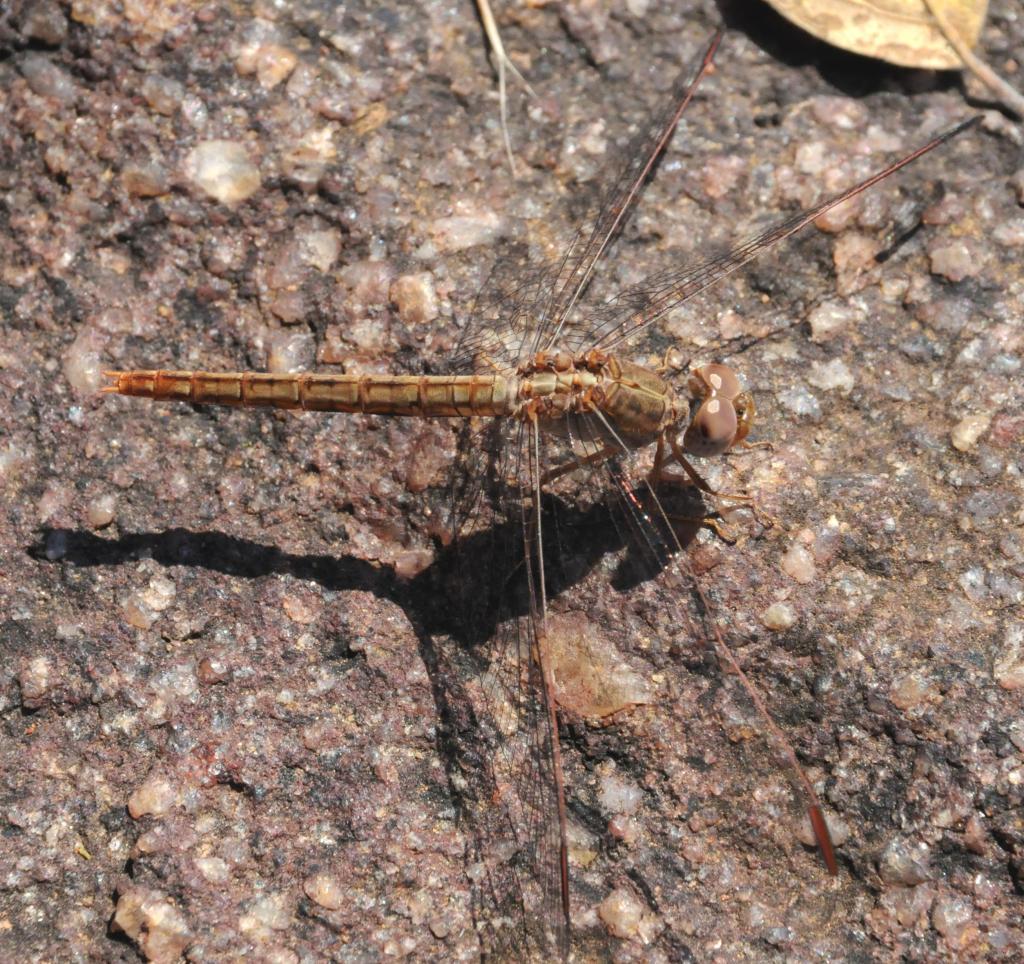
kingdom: Animalia
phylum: Arthropoda
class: Insecta
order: Odonata
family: Libellulidae
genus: Crocothemis
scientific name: Crocothemis divisa
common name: Divisa scarlet
